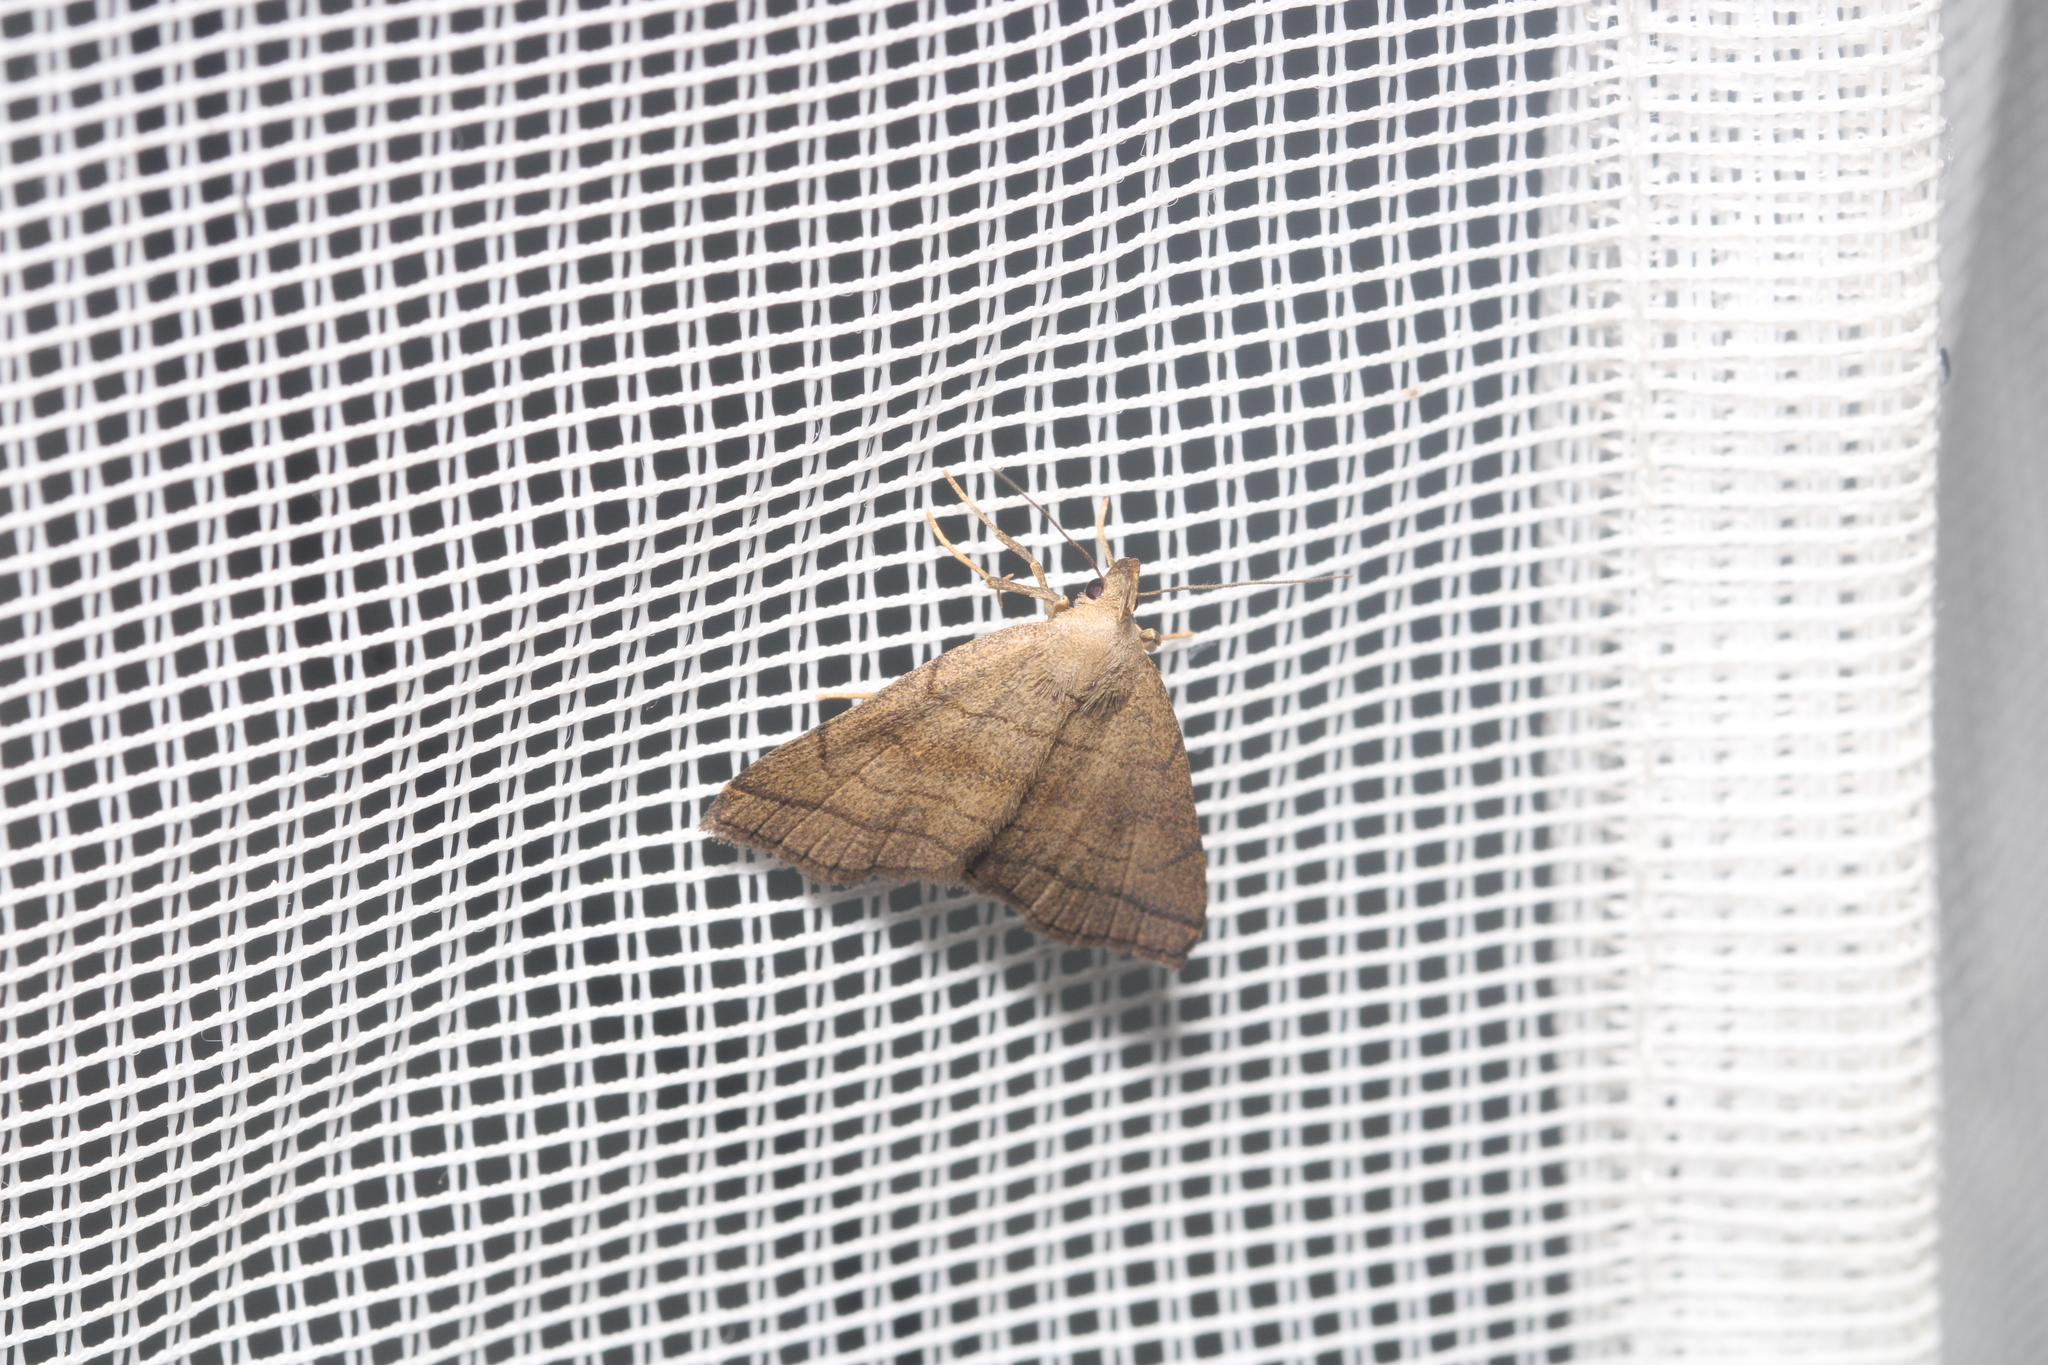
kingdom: Animalia
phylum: Arthropoda
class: Insecta
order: Lepidoptera
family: Erebidae
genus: Herminia
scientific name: Herminia tarsicrinalis
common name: Shaded fan-foot
